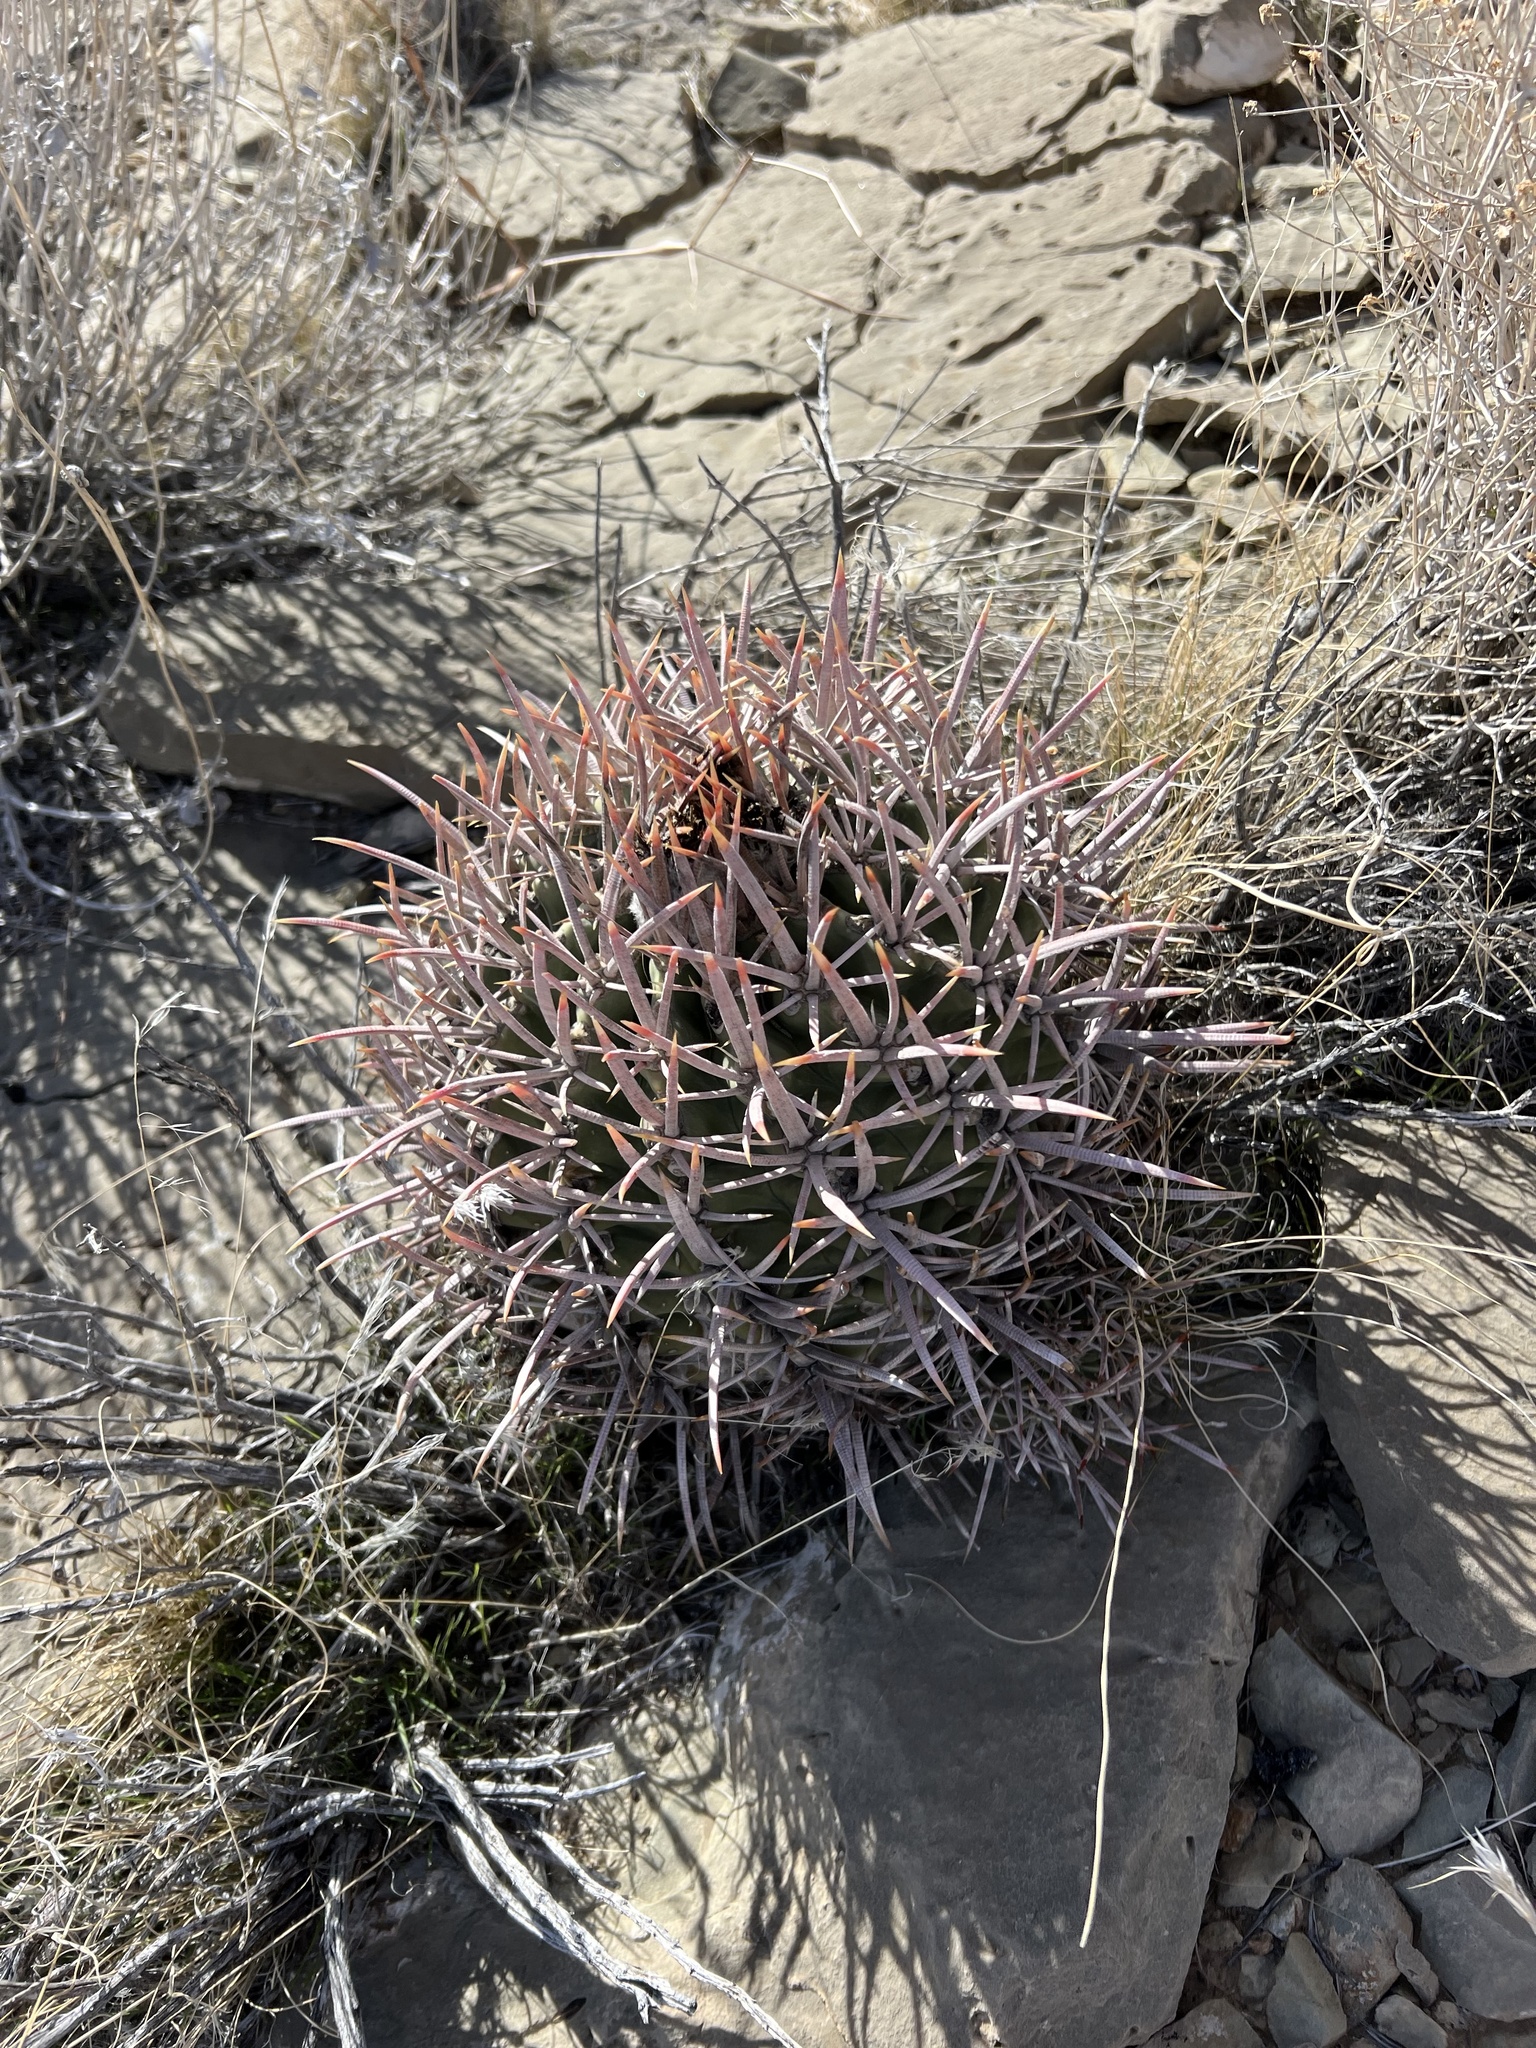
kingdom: Plantae
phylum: Tracheophyta
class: Magnoliopsida
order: Caryophyllales
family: Cactaceae
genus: Echinocactus
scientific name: Echinocactus polycephalus
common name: Cottontop cactus
